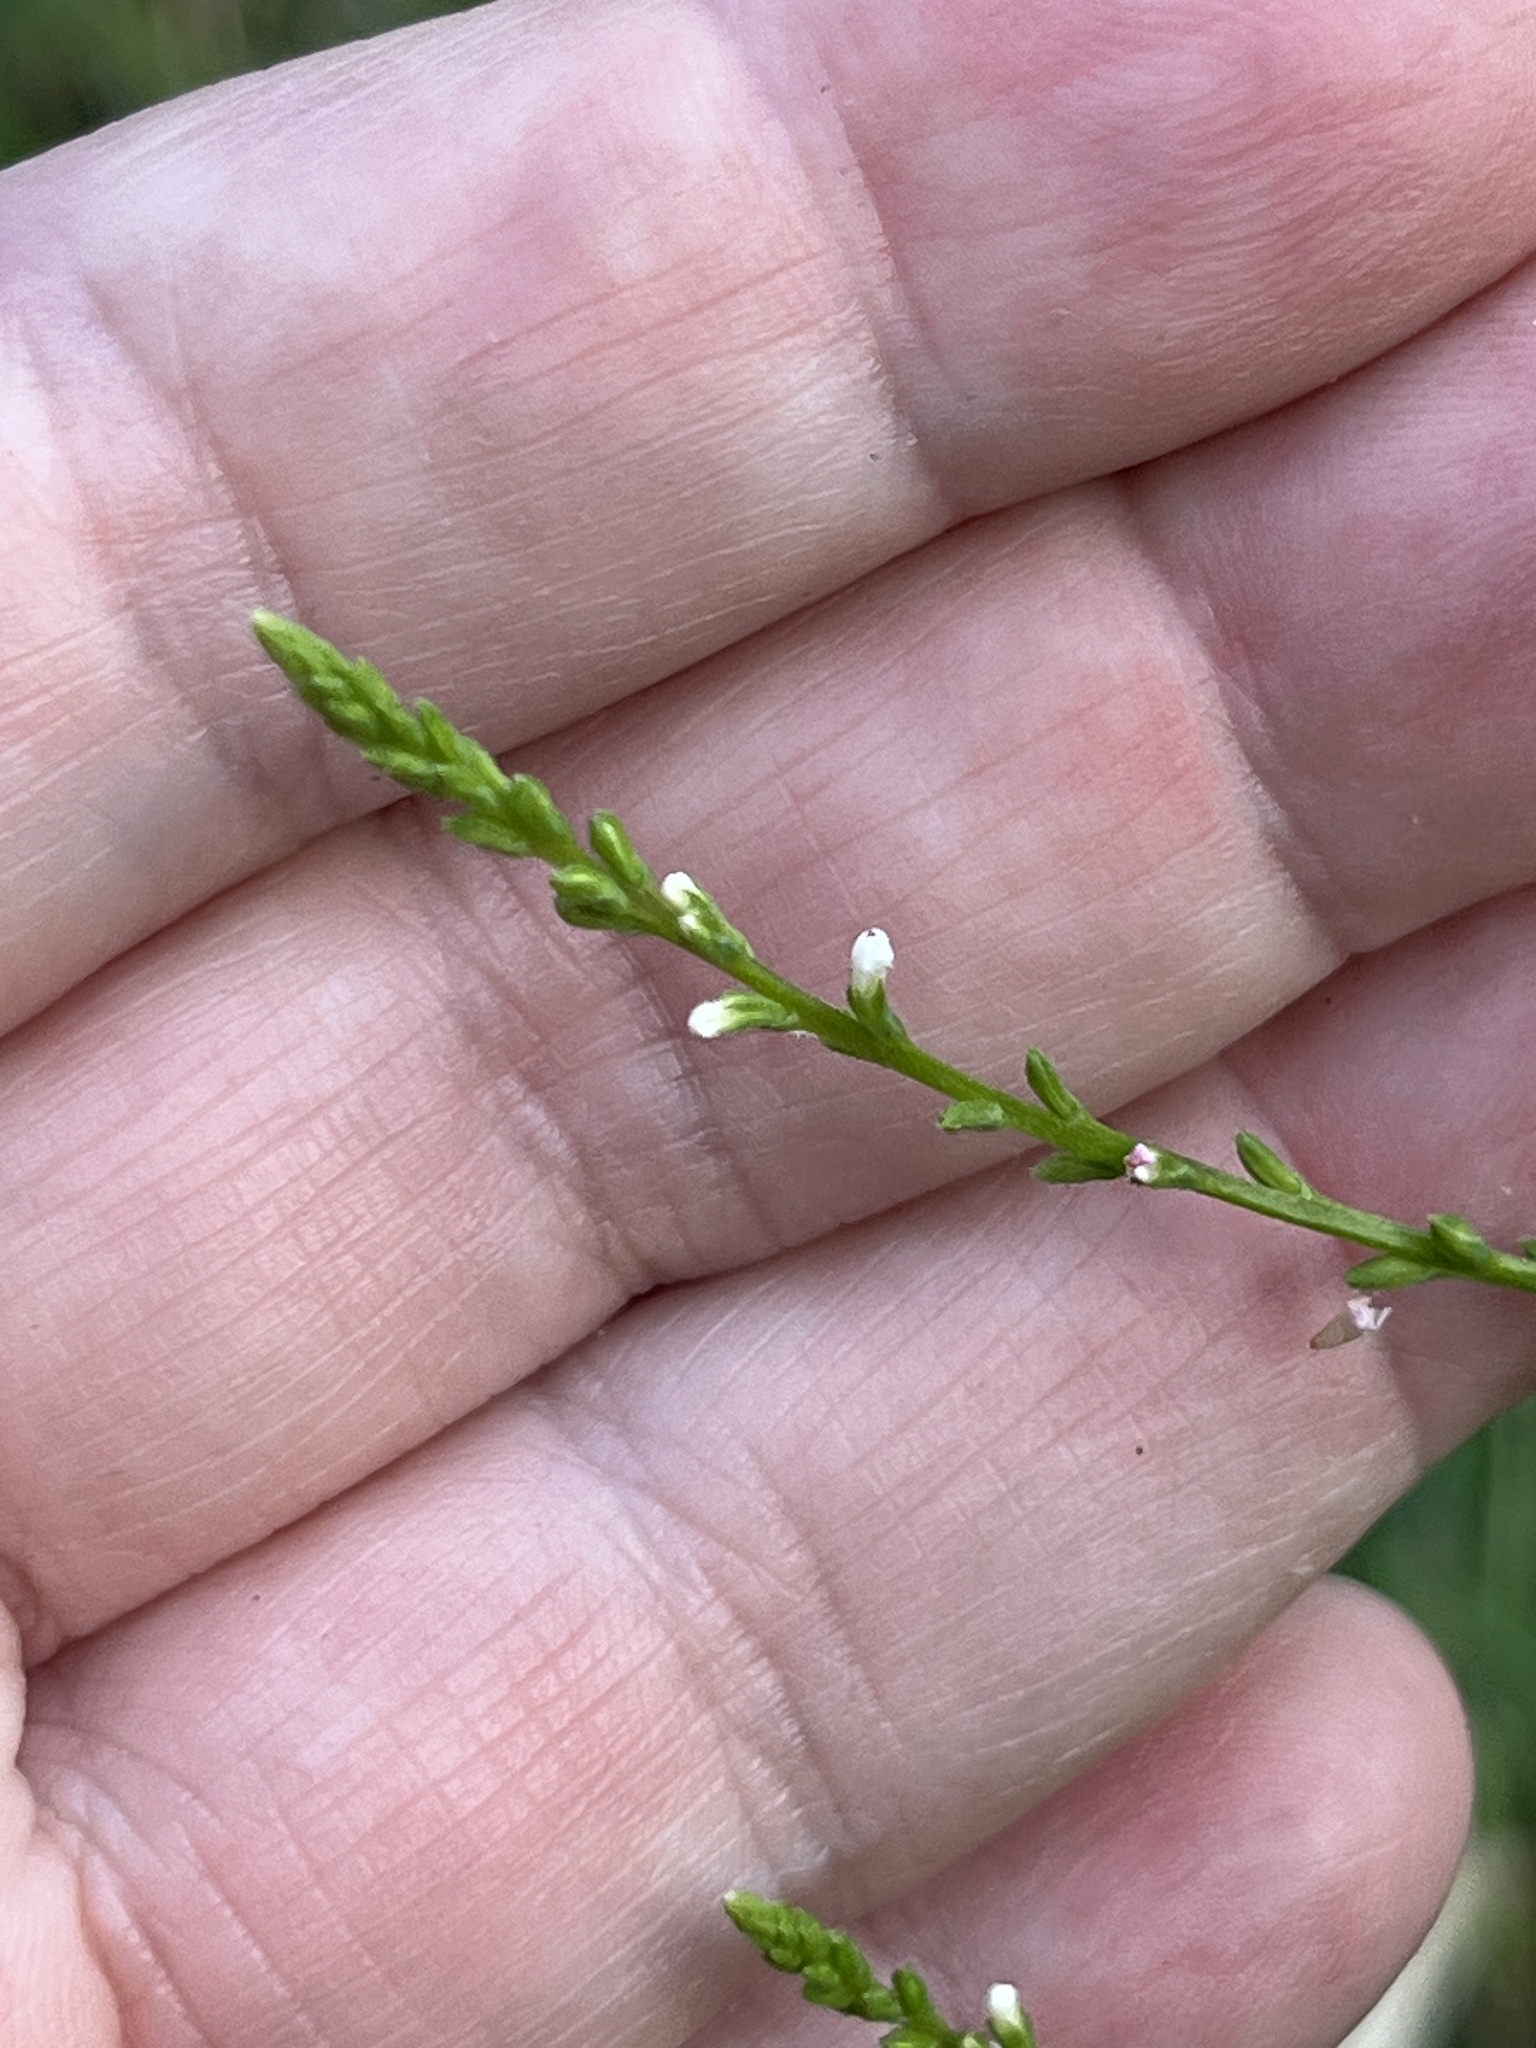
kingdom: Plantae
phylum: Tracheophyta
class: Magnoliopsida
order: Lamiales
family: Verbenaceae
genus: Verbena
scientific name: Verbena urticifolia
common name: Nettle-leaved vervain
